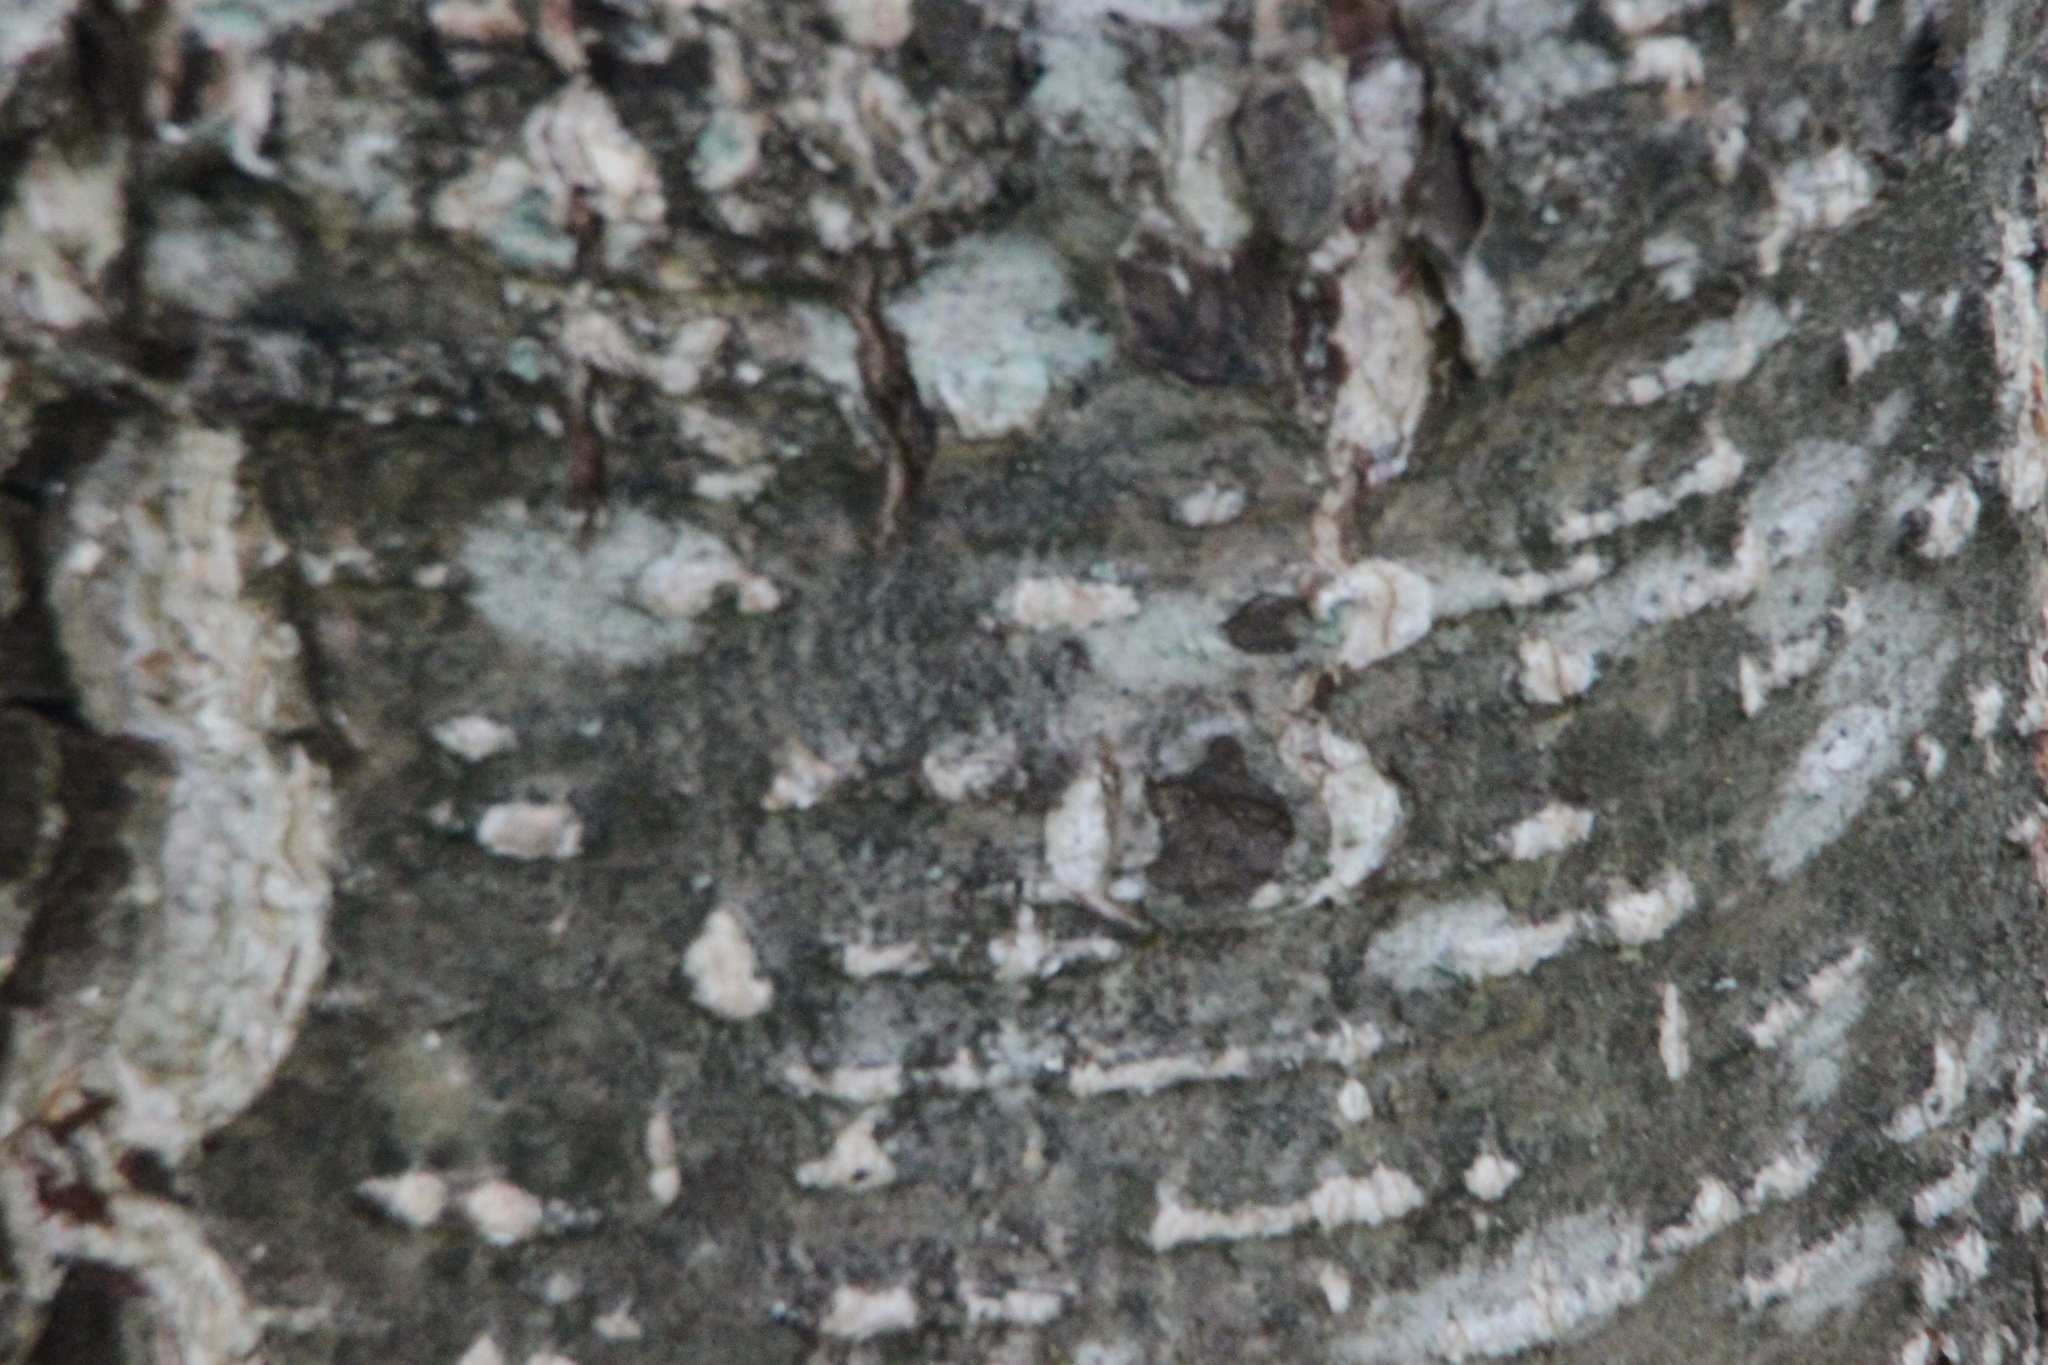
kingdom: Plantae
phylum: Tracheophyta
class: Magnoliopsida
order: Fagales
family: Betulaceae
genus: Alnus
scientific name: Alnus glutinosa
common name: Black alder
